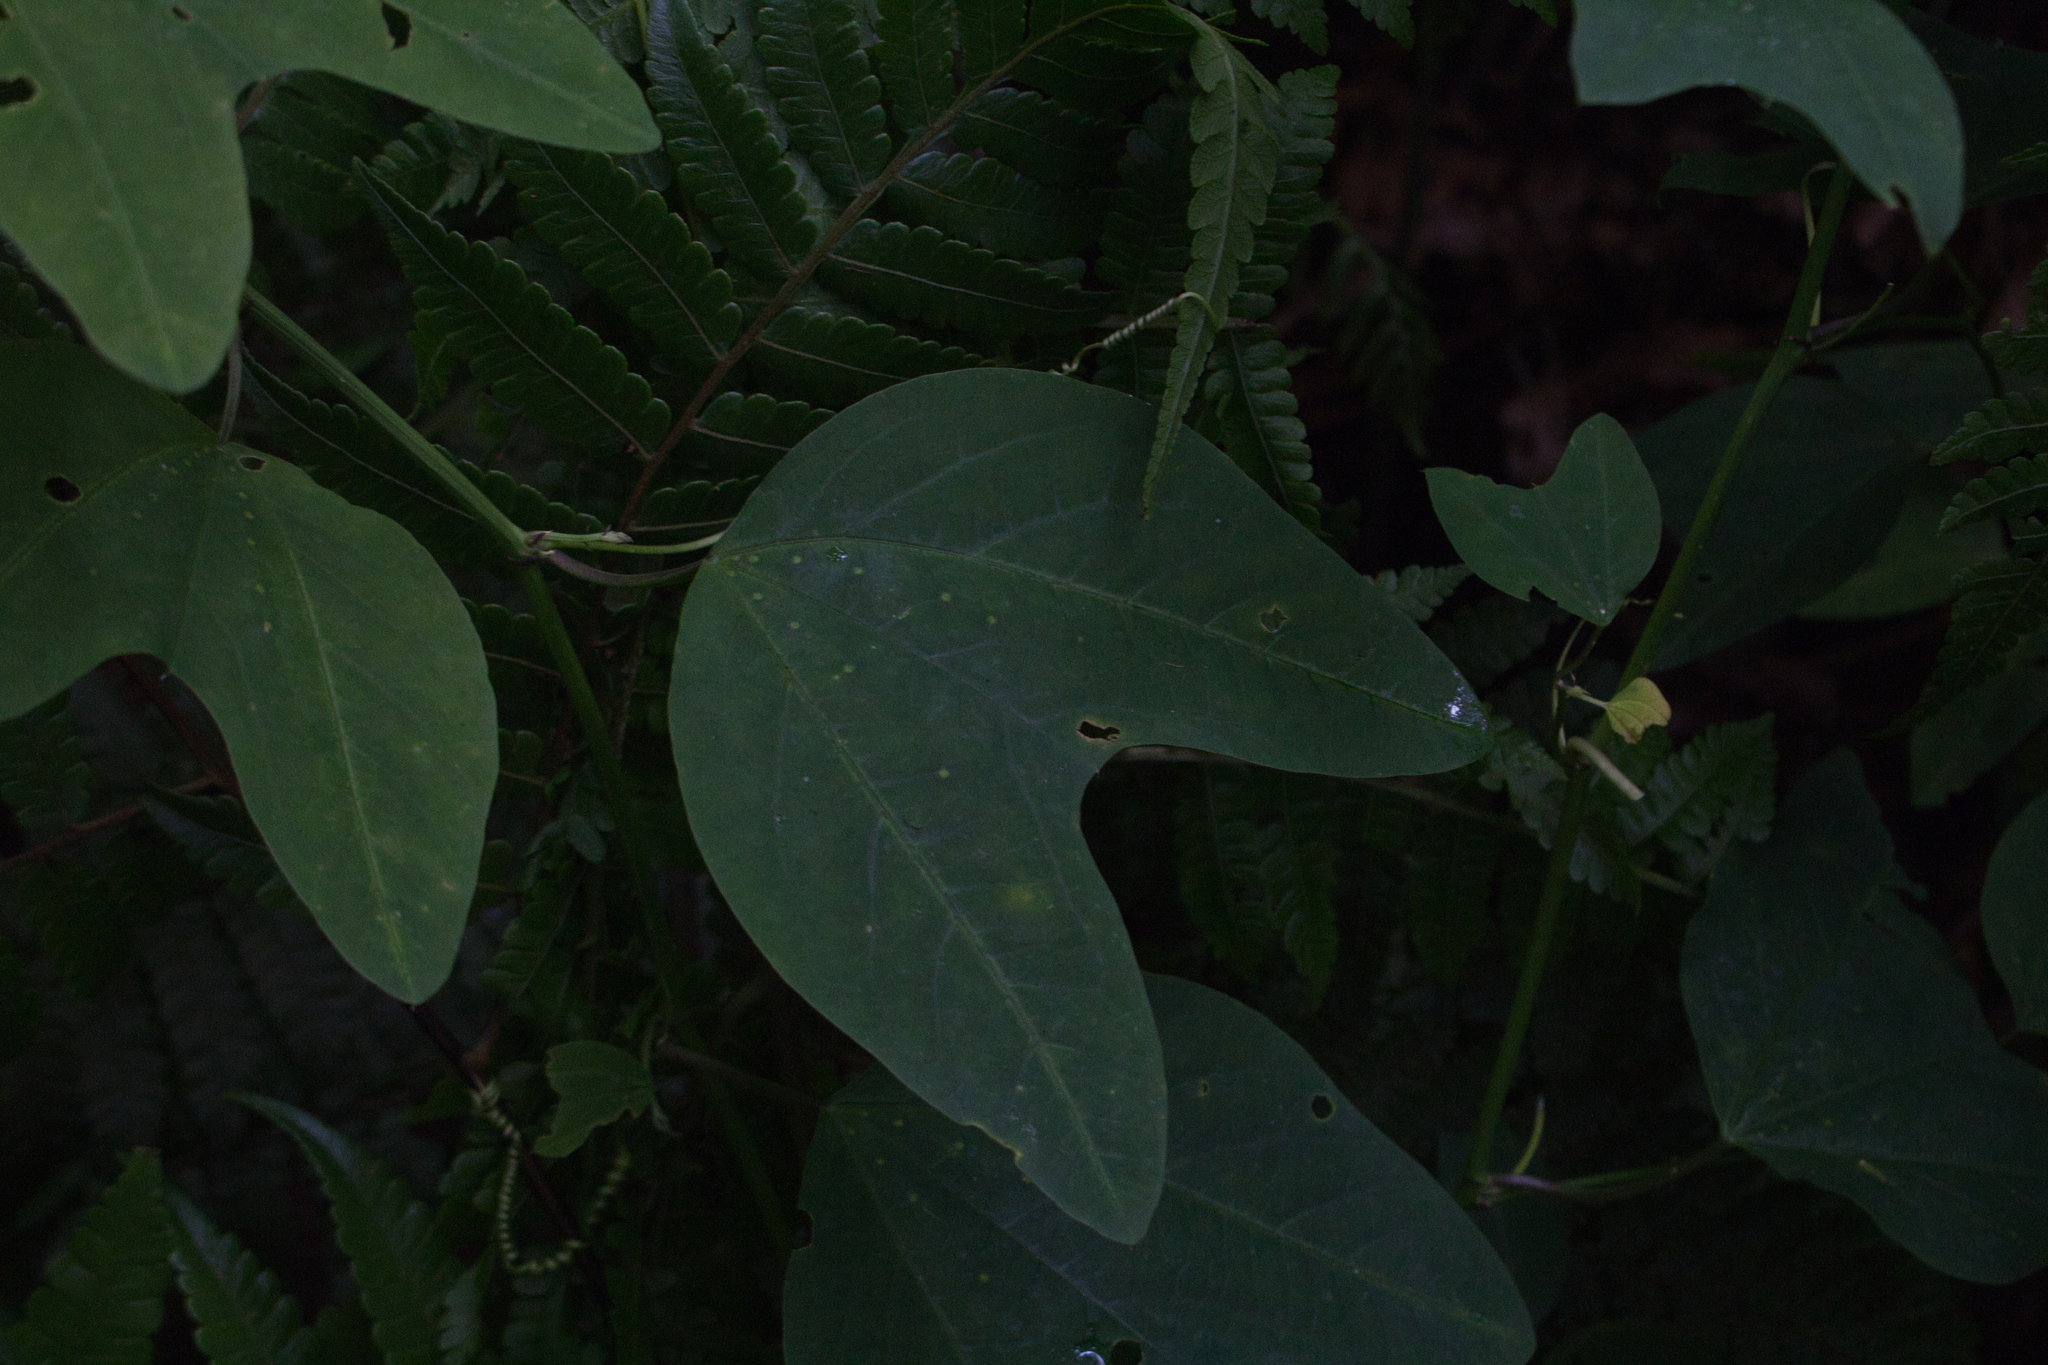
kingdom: Plantae
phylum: Tracheophyta
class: Magnoliopsida
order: Malpighiales
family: Passifloraceae
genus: Passiflora
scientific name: Passiflora apetala
